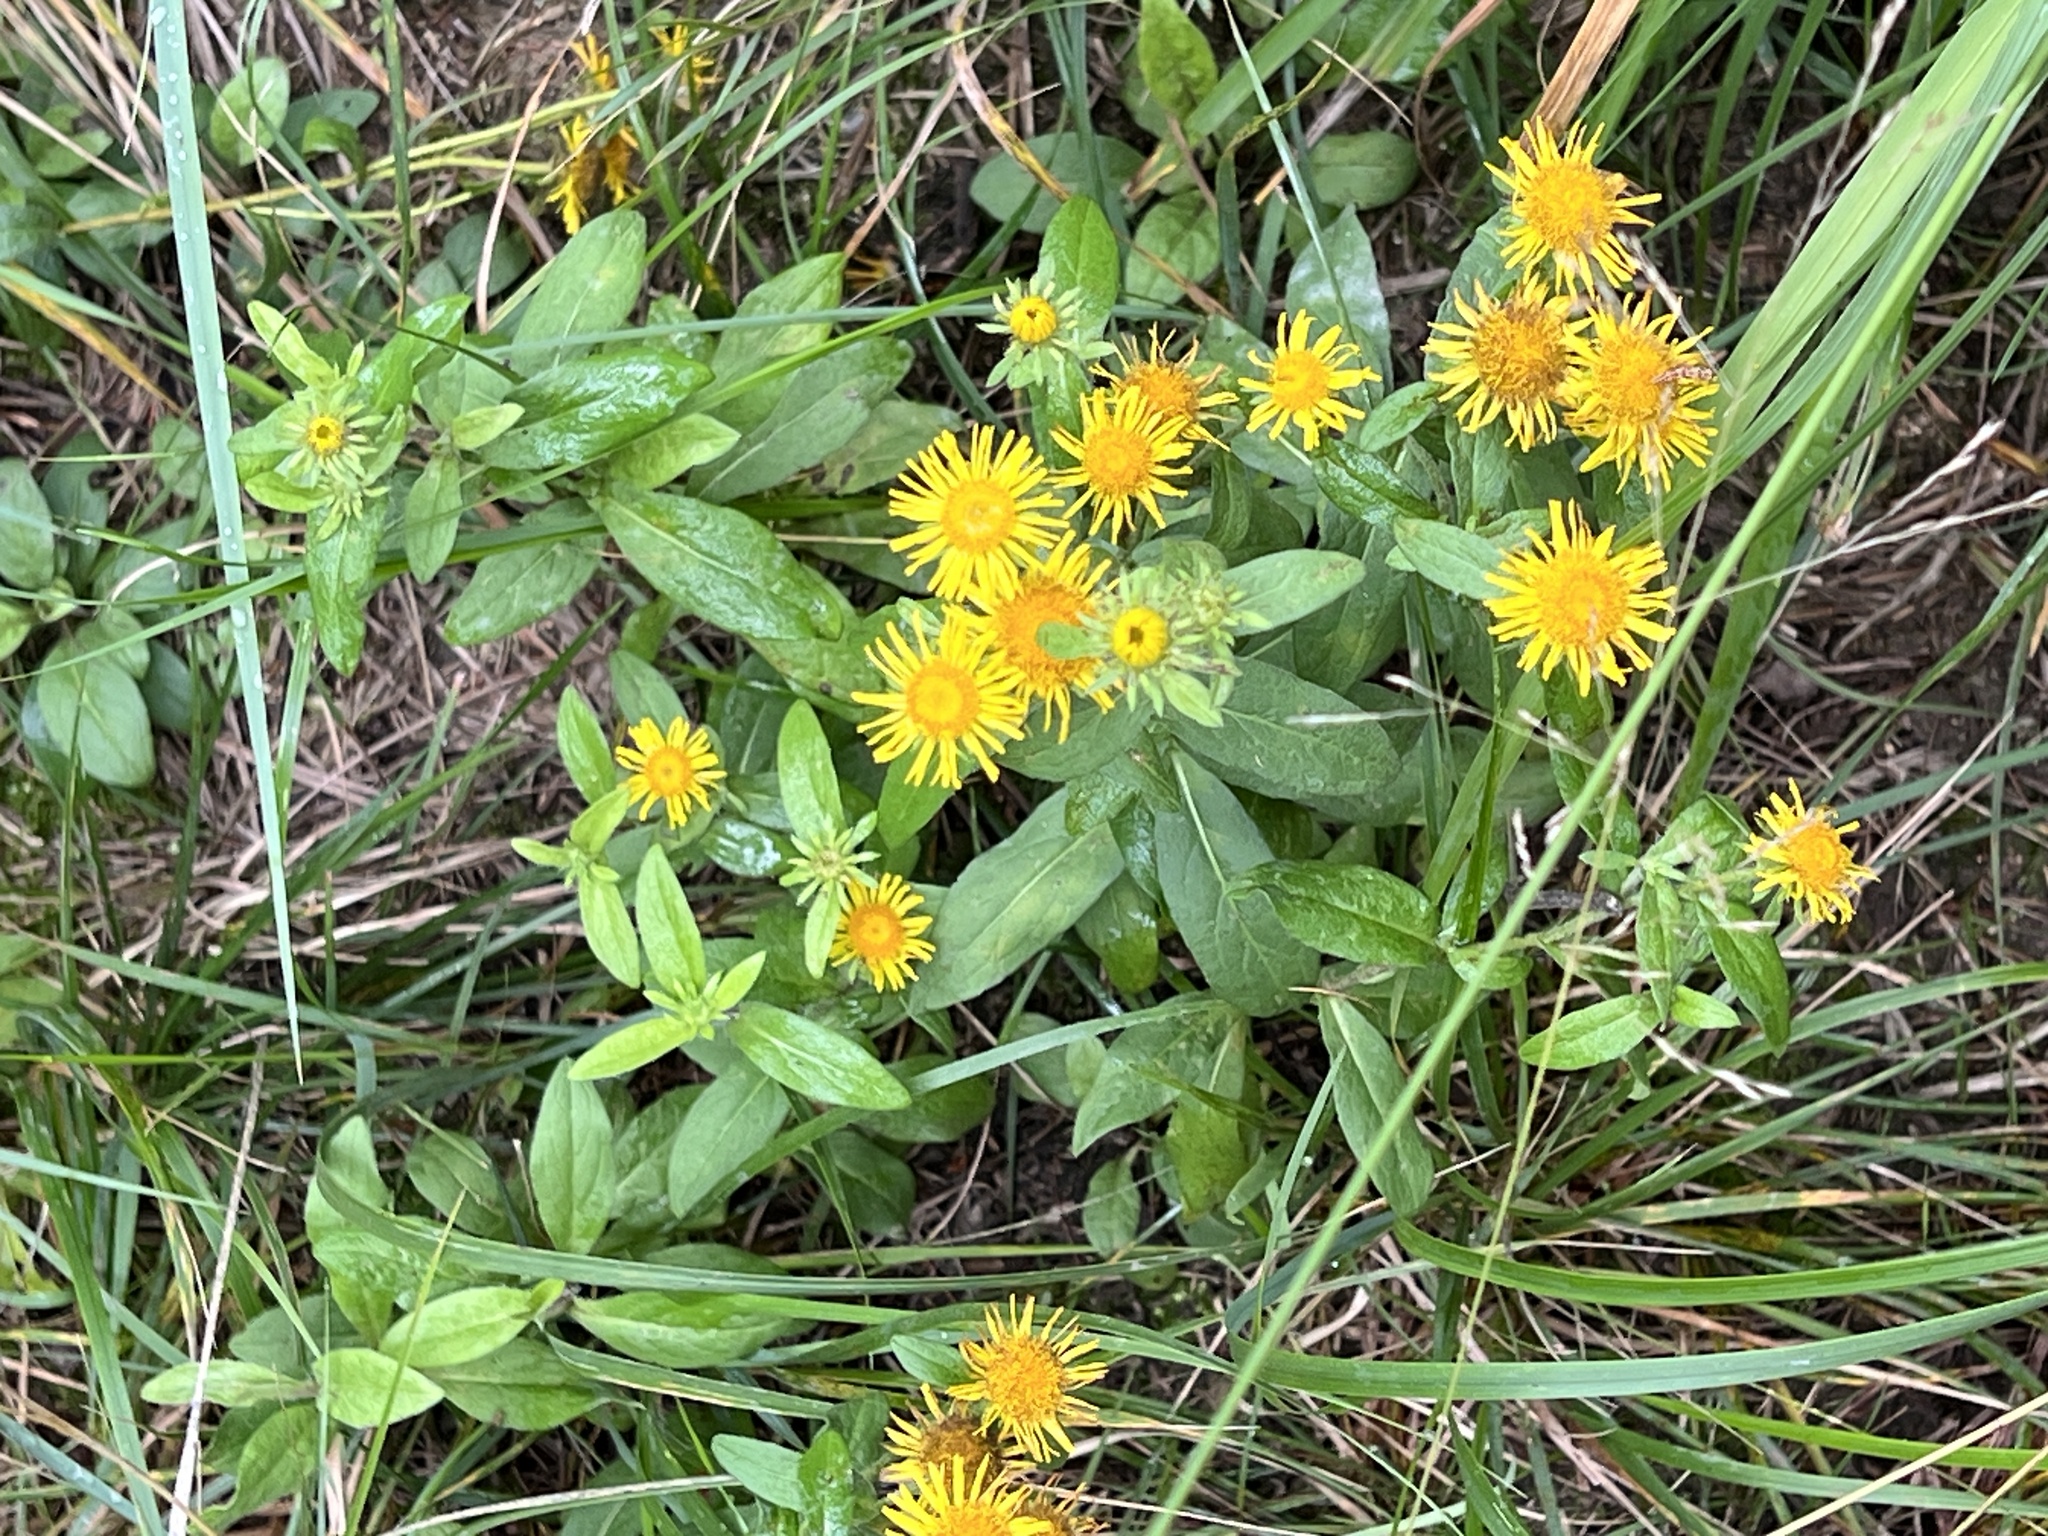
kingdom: Plantae
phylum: Tracheophyta
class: Magnoliopsida
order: Asterales
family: Asteraceae
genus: Pentanema
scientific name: Pentanema britannicum
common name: British elecampane
